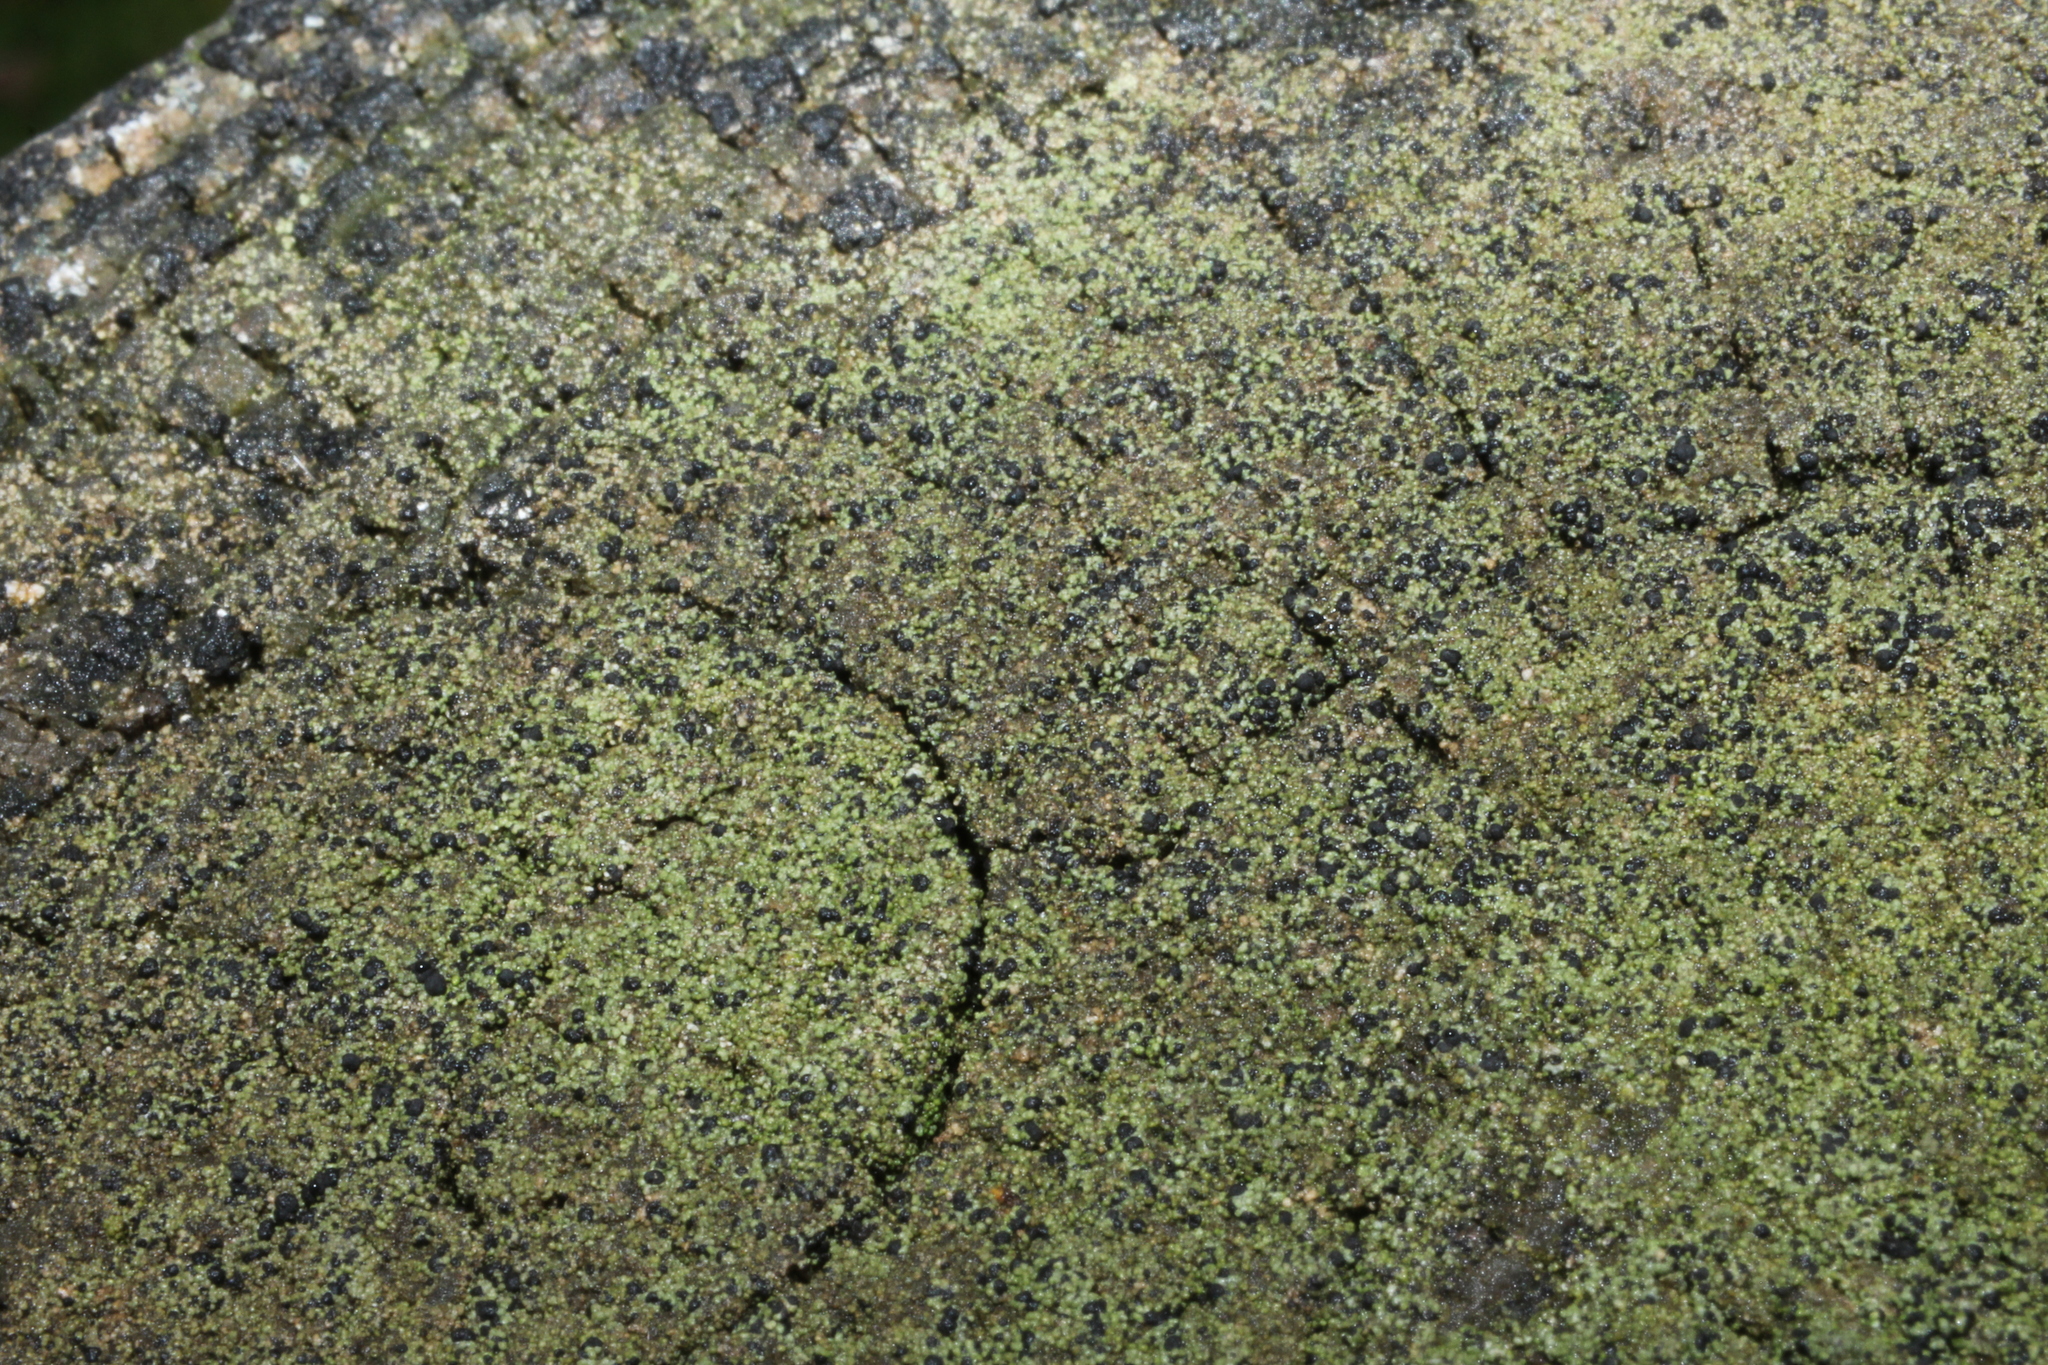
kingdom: Fungi
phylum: Ascomycota
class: Lecanoromycetes
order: Baeomycetales
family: Trapeliaceae
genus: Trapeliopsis
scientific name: Trapeliopsis flexuosa
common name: Board lichen
